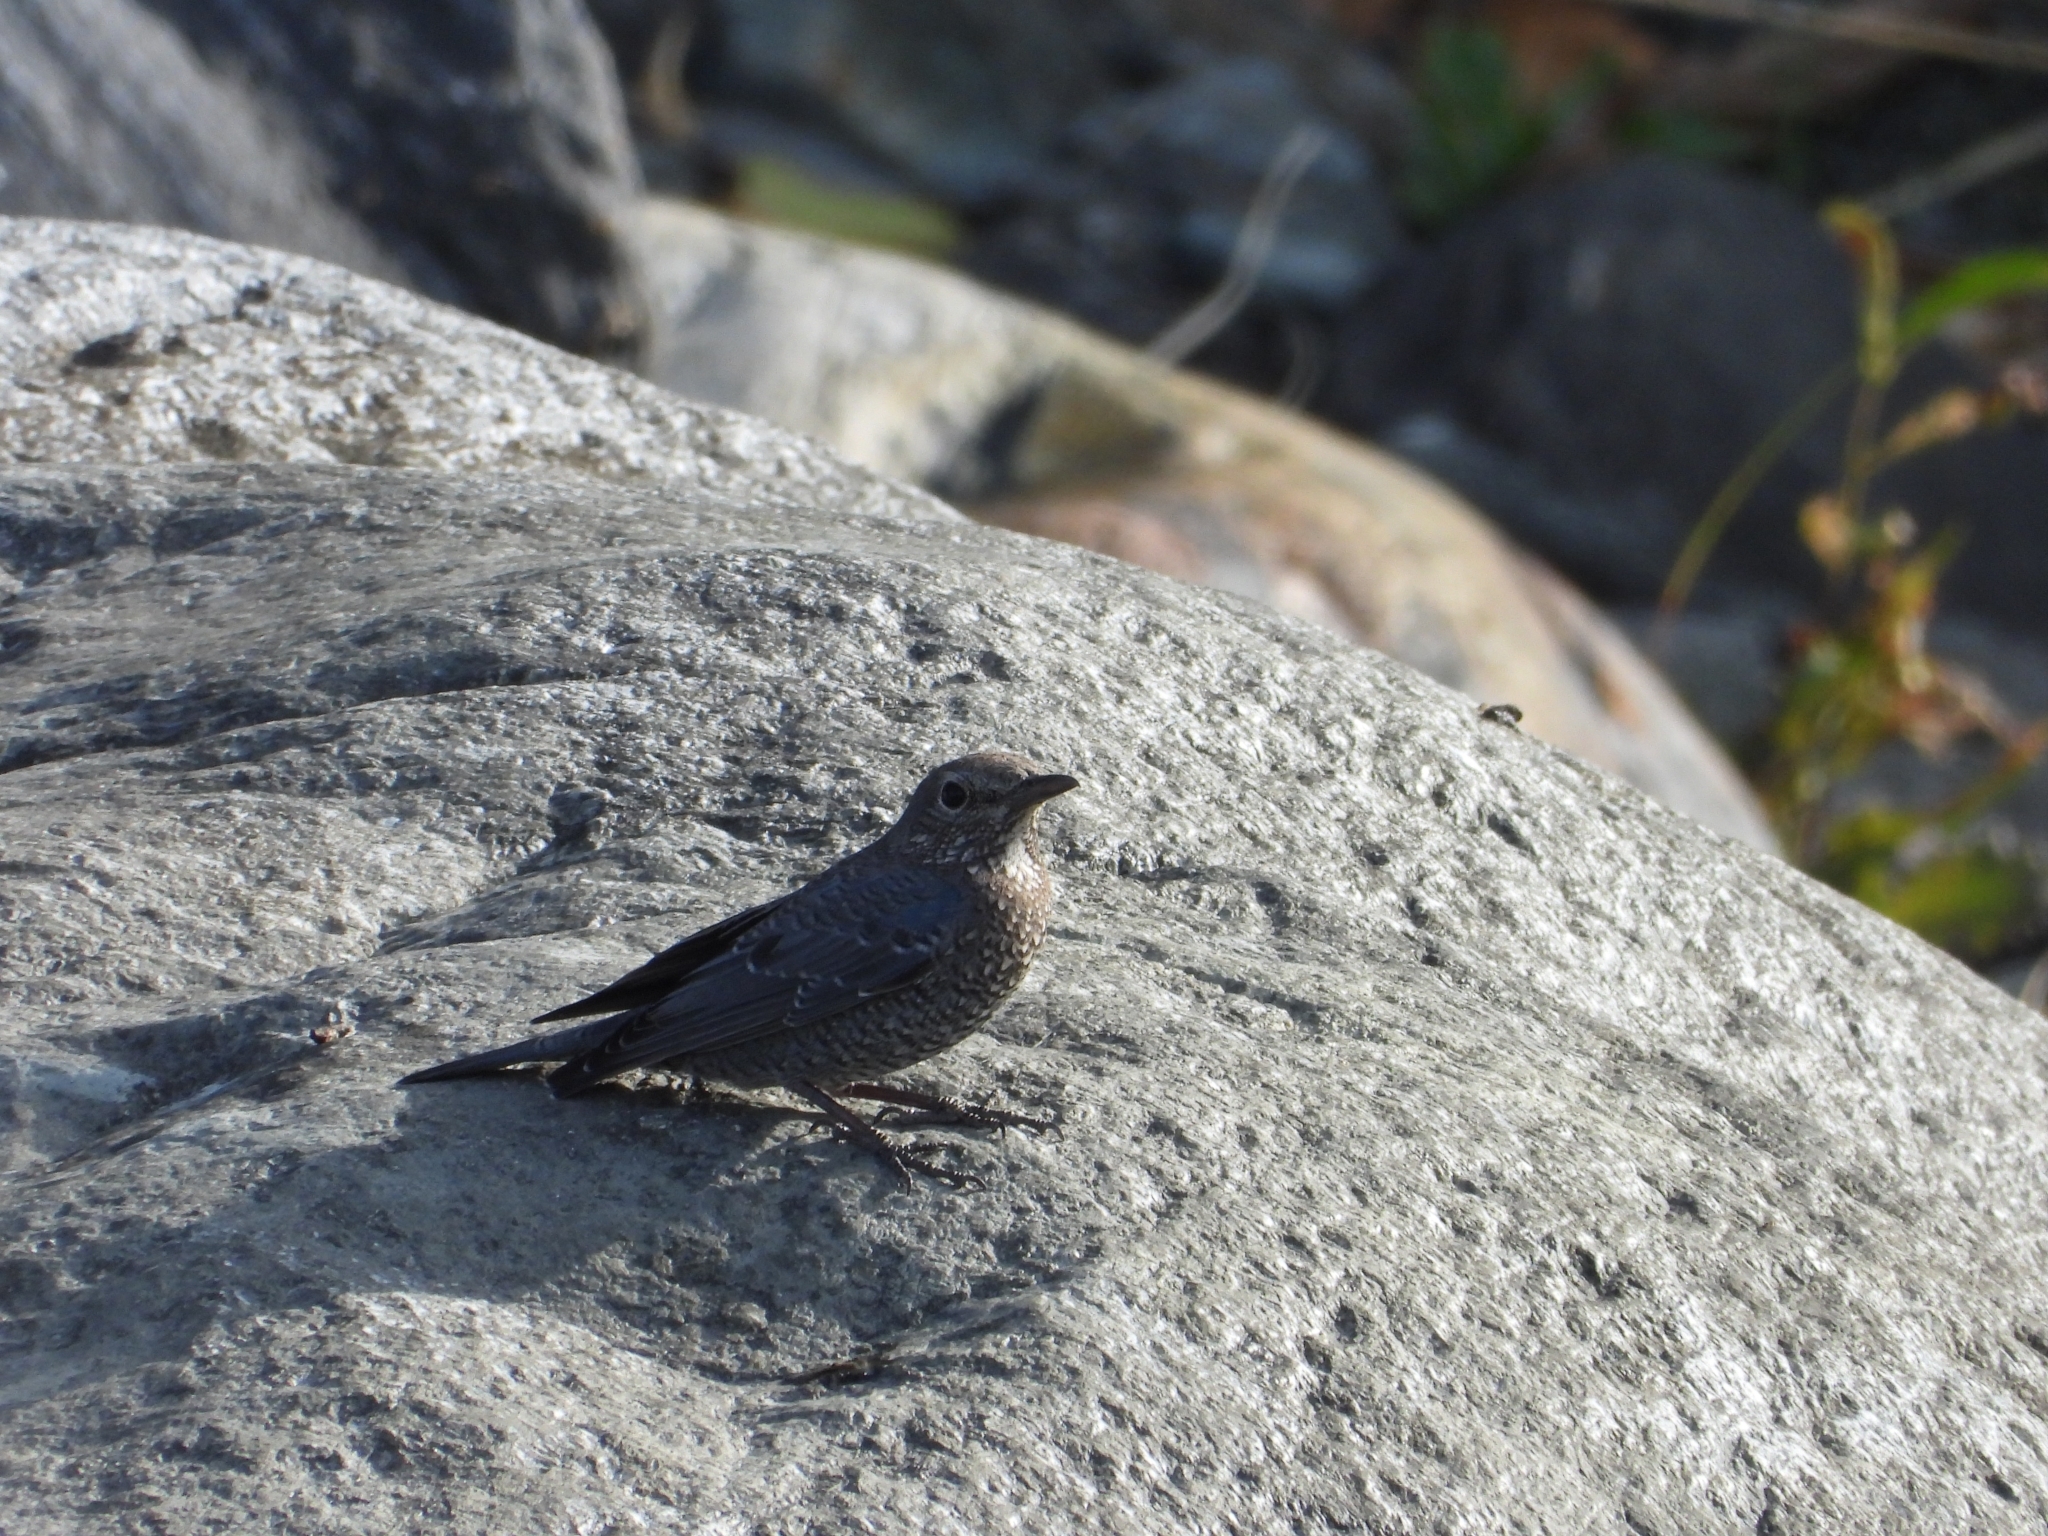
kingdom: Animalia
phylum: Chordata
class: Aves
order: Passeriformes
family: Muscicapidae
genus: Monticola
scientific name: Monticola solitarius
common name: Blue rock thrush
